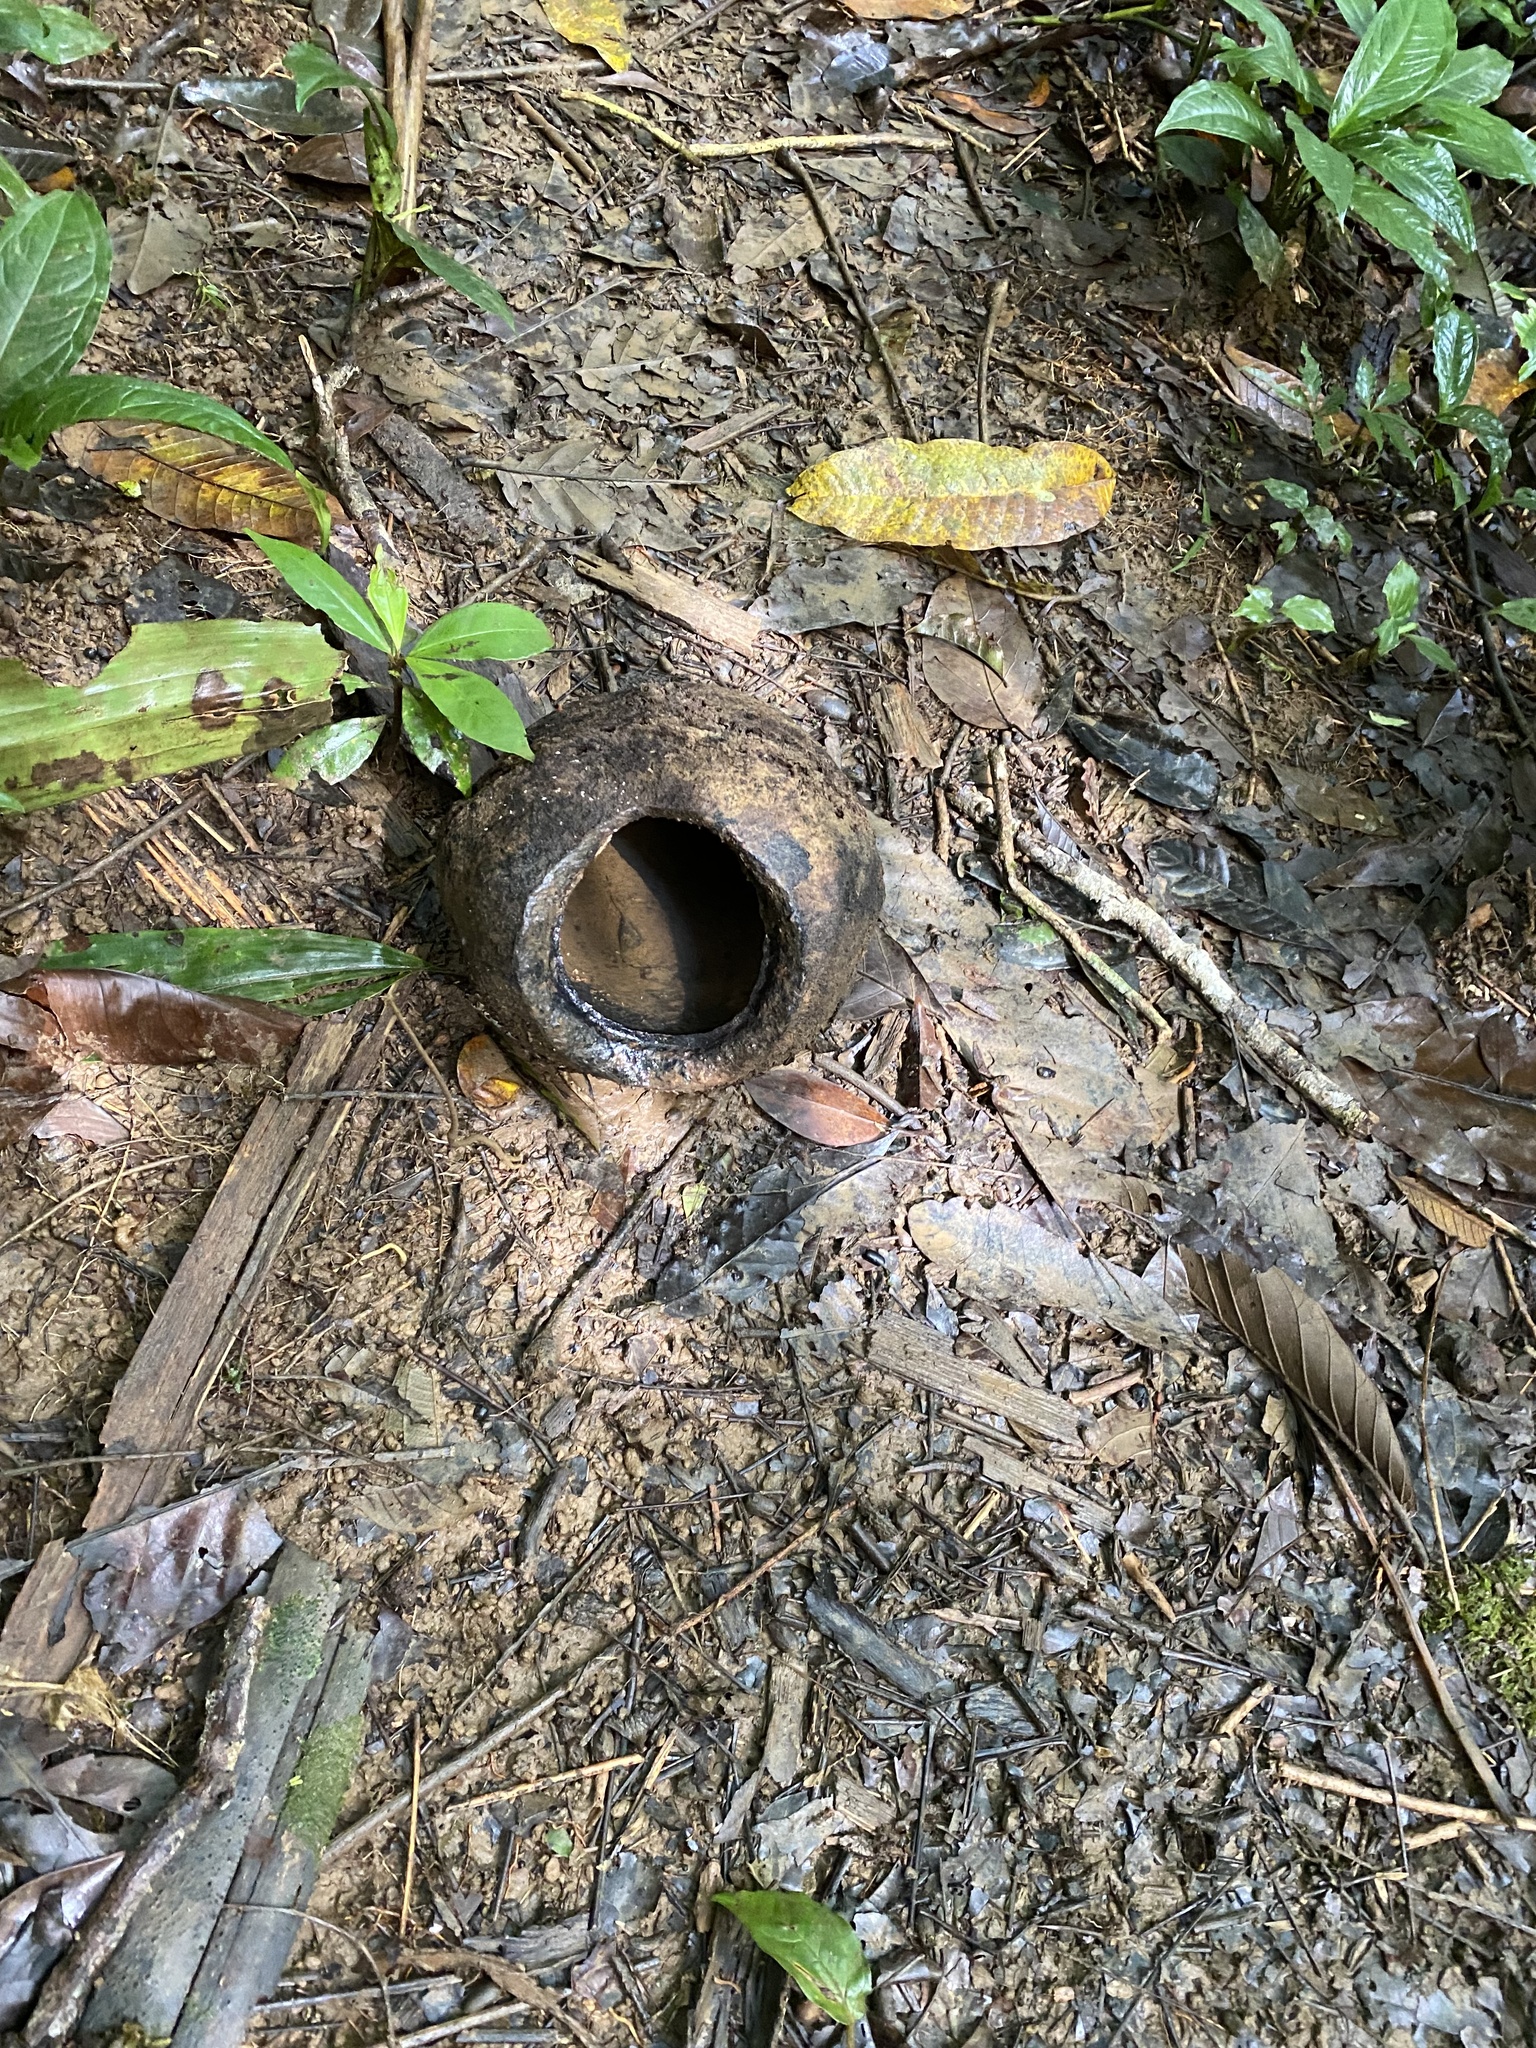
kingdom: Plantae
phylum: Tracheophyta
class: Magnoliopsida
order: Ericales
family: Lecythidaceae
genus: Lecythis
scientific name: Lecythis ampla
